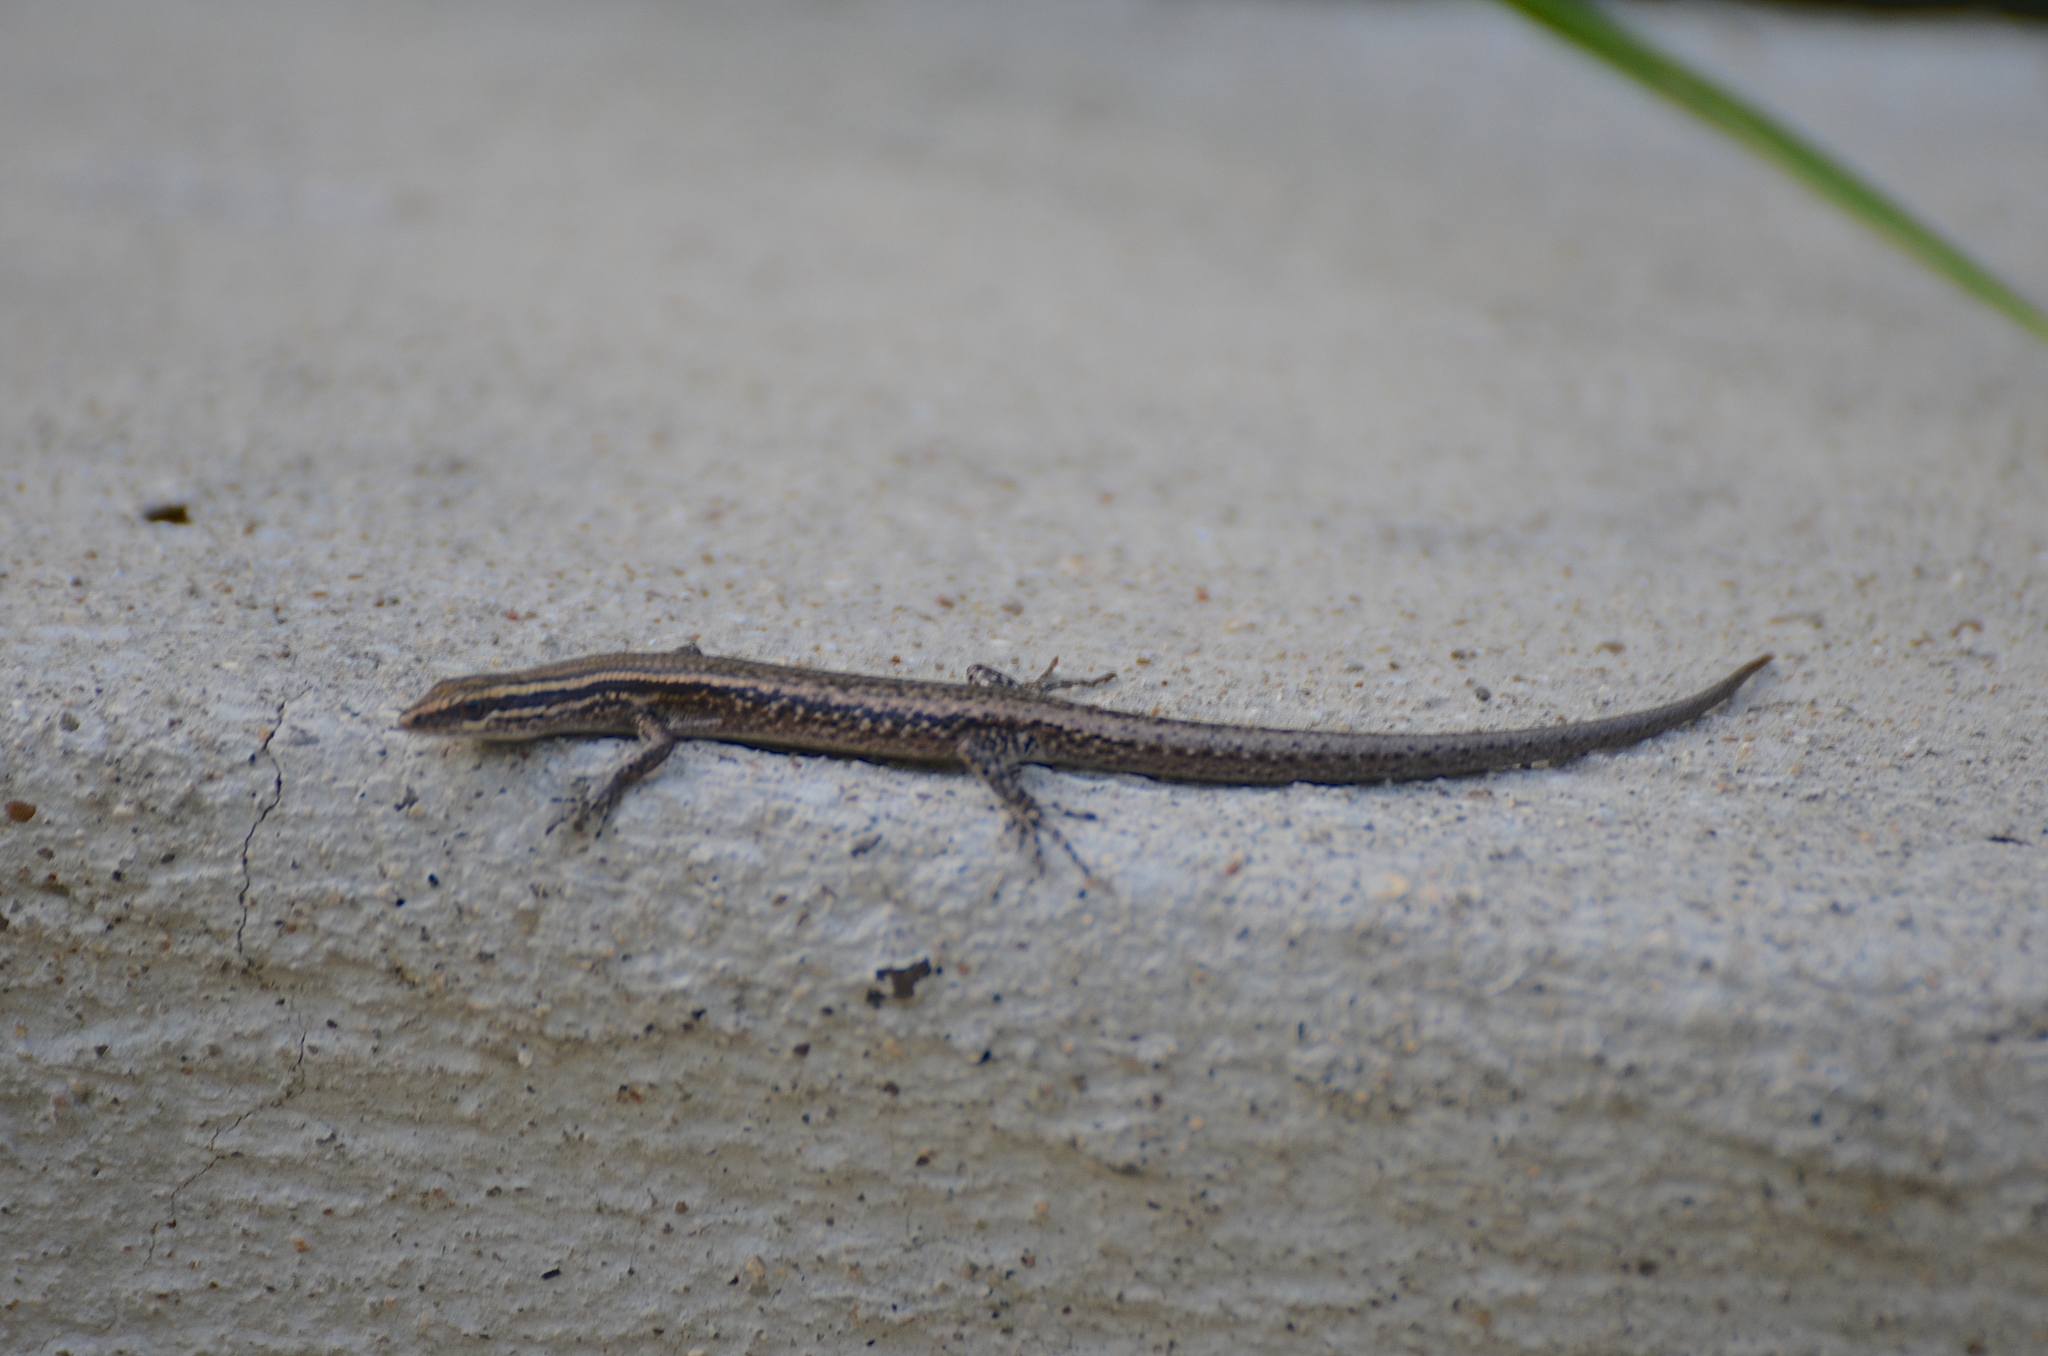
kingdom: Animalia
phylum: Chordata
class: Squamata
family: Scincidae
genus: Cryptoblepharus
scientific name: Cryptoblepharus eximius
